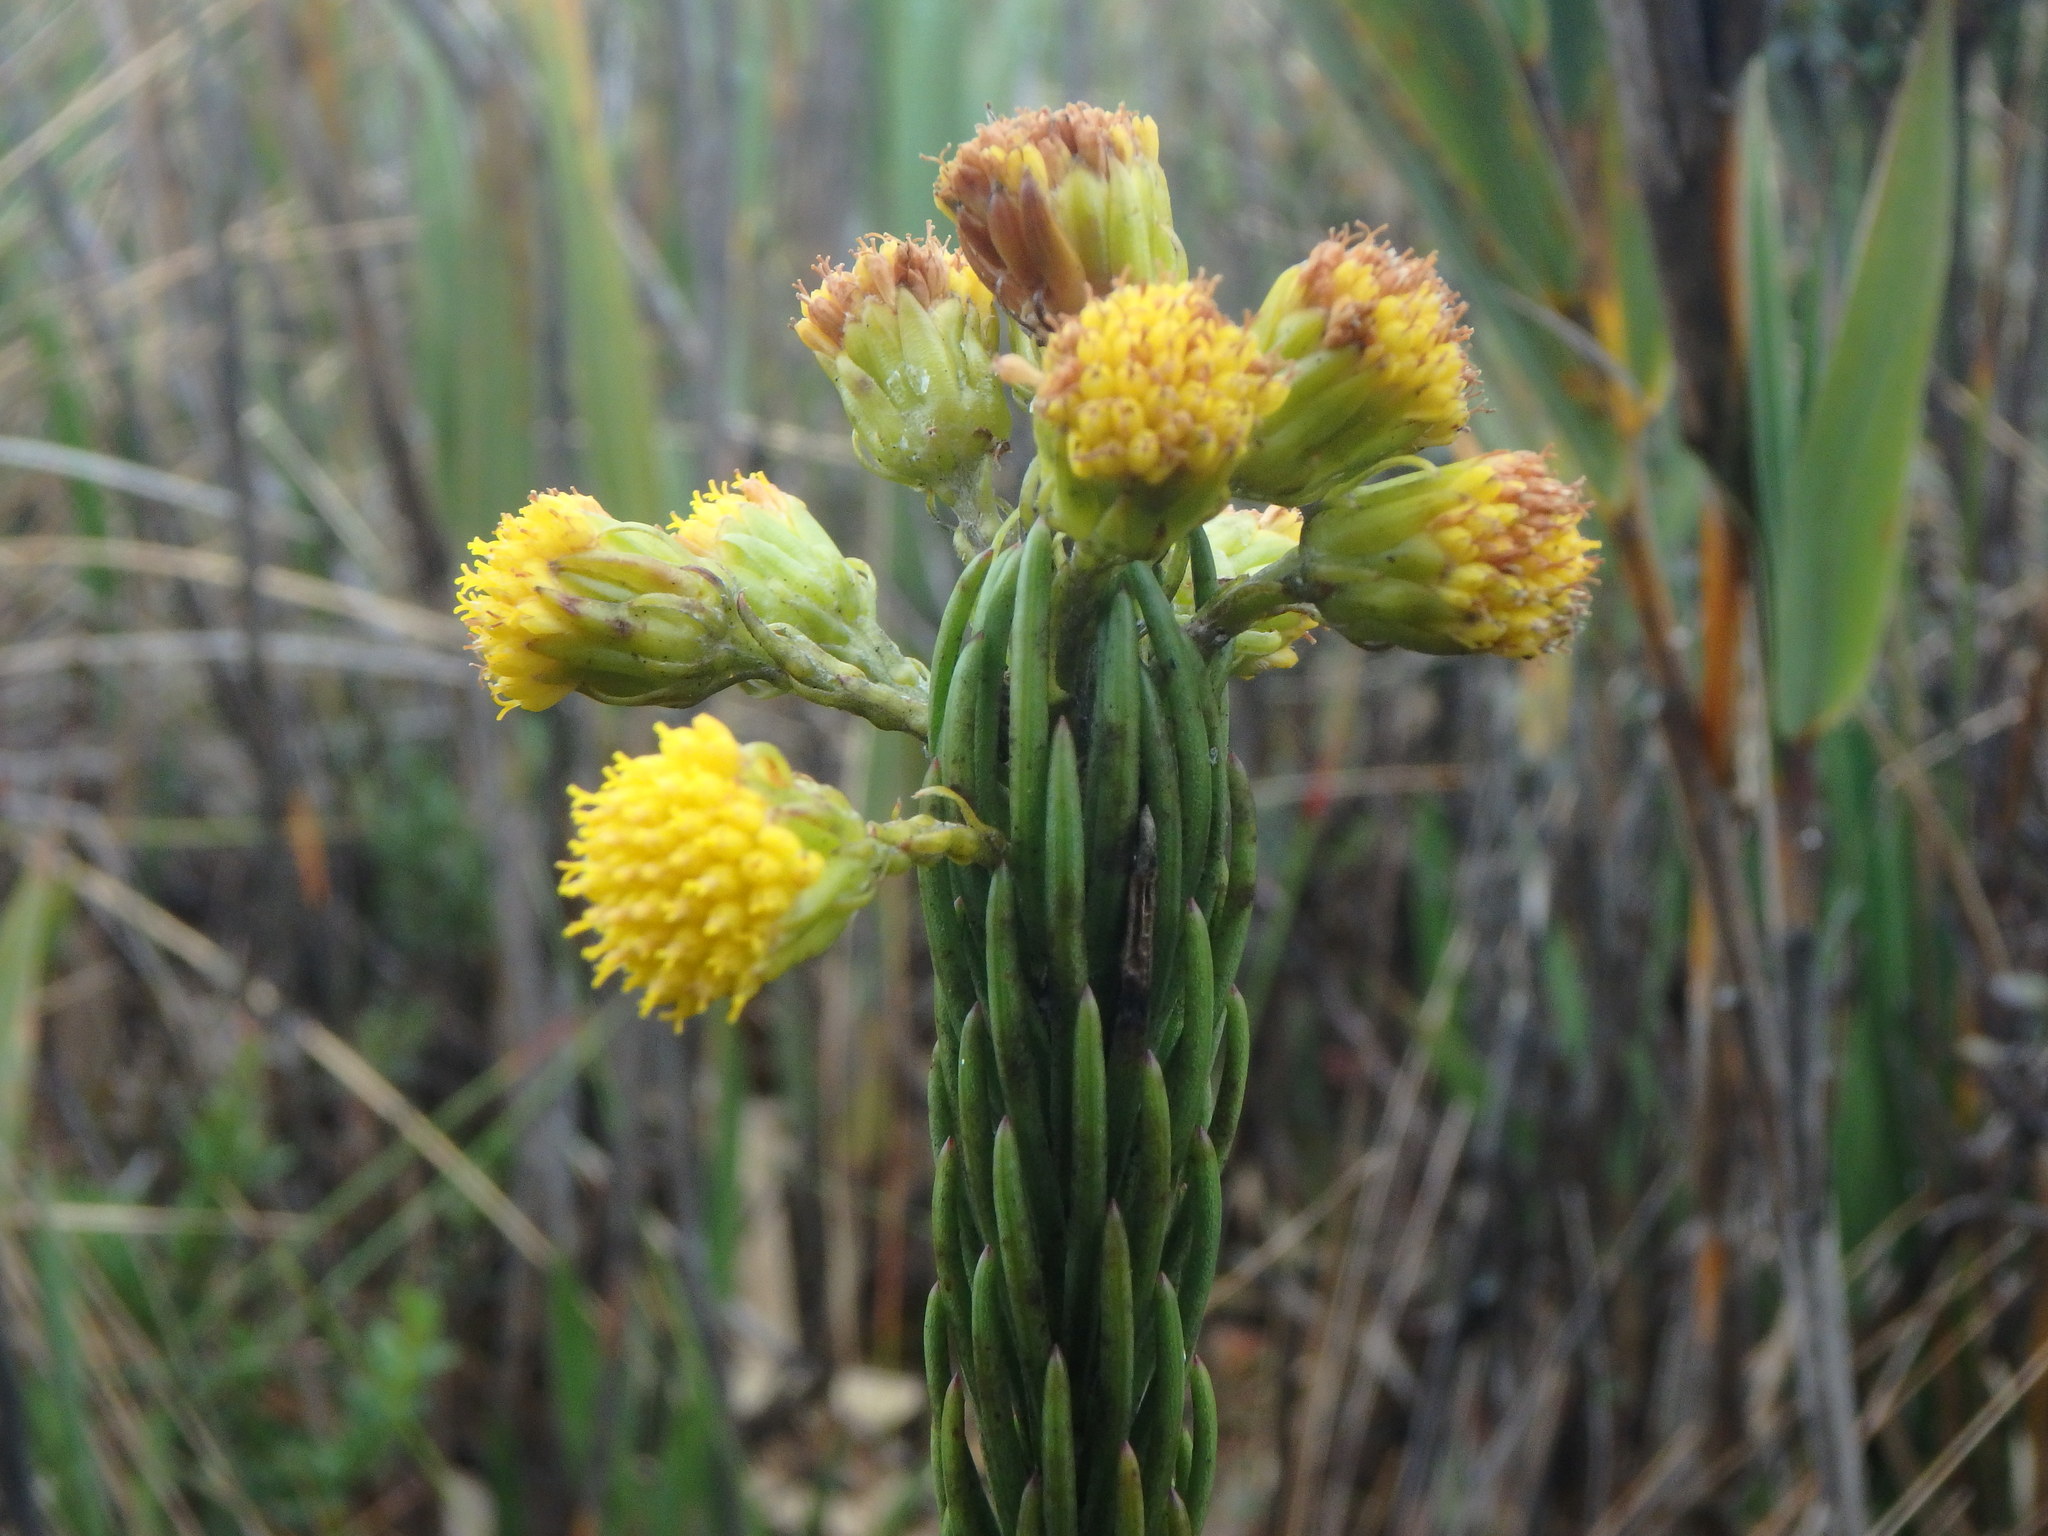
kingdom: Plantae
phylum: Tracheophyta
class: Magnoliopsida
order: Asterales
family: Asteraceae
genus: Monticalia
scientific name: Monticalia lindenii
